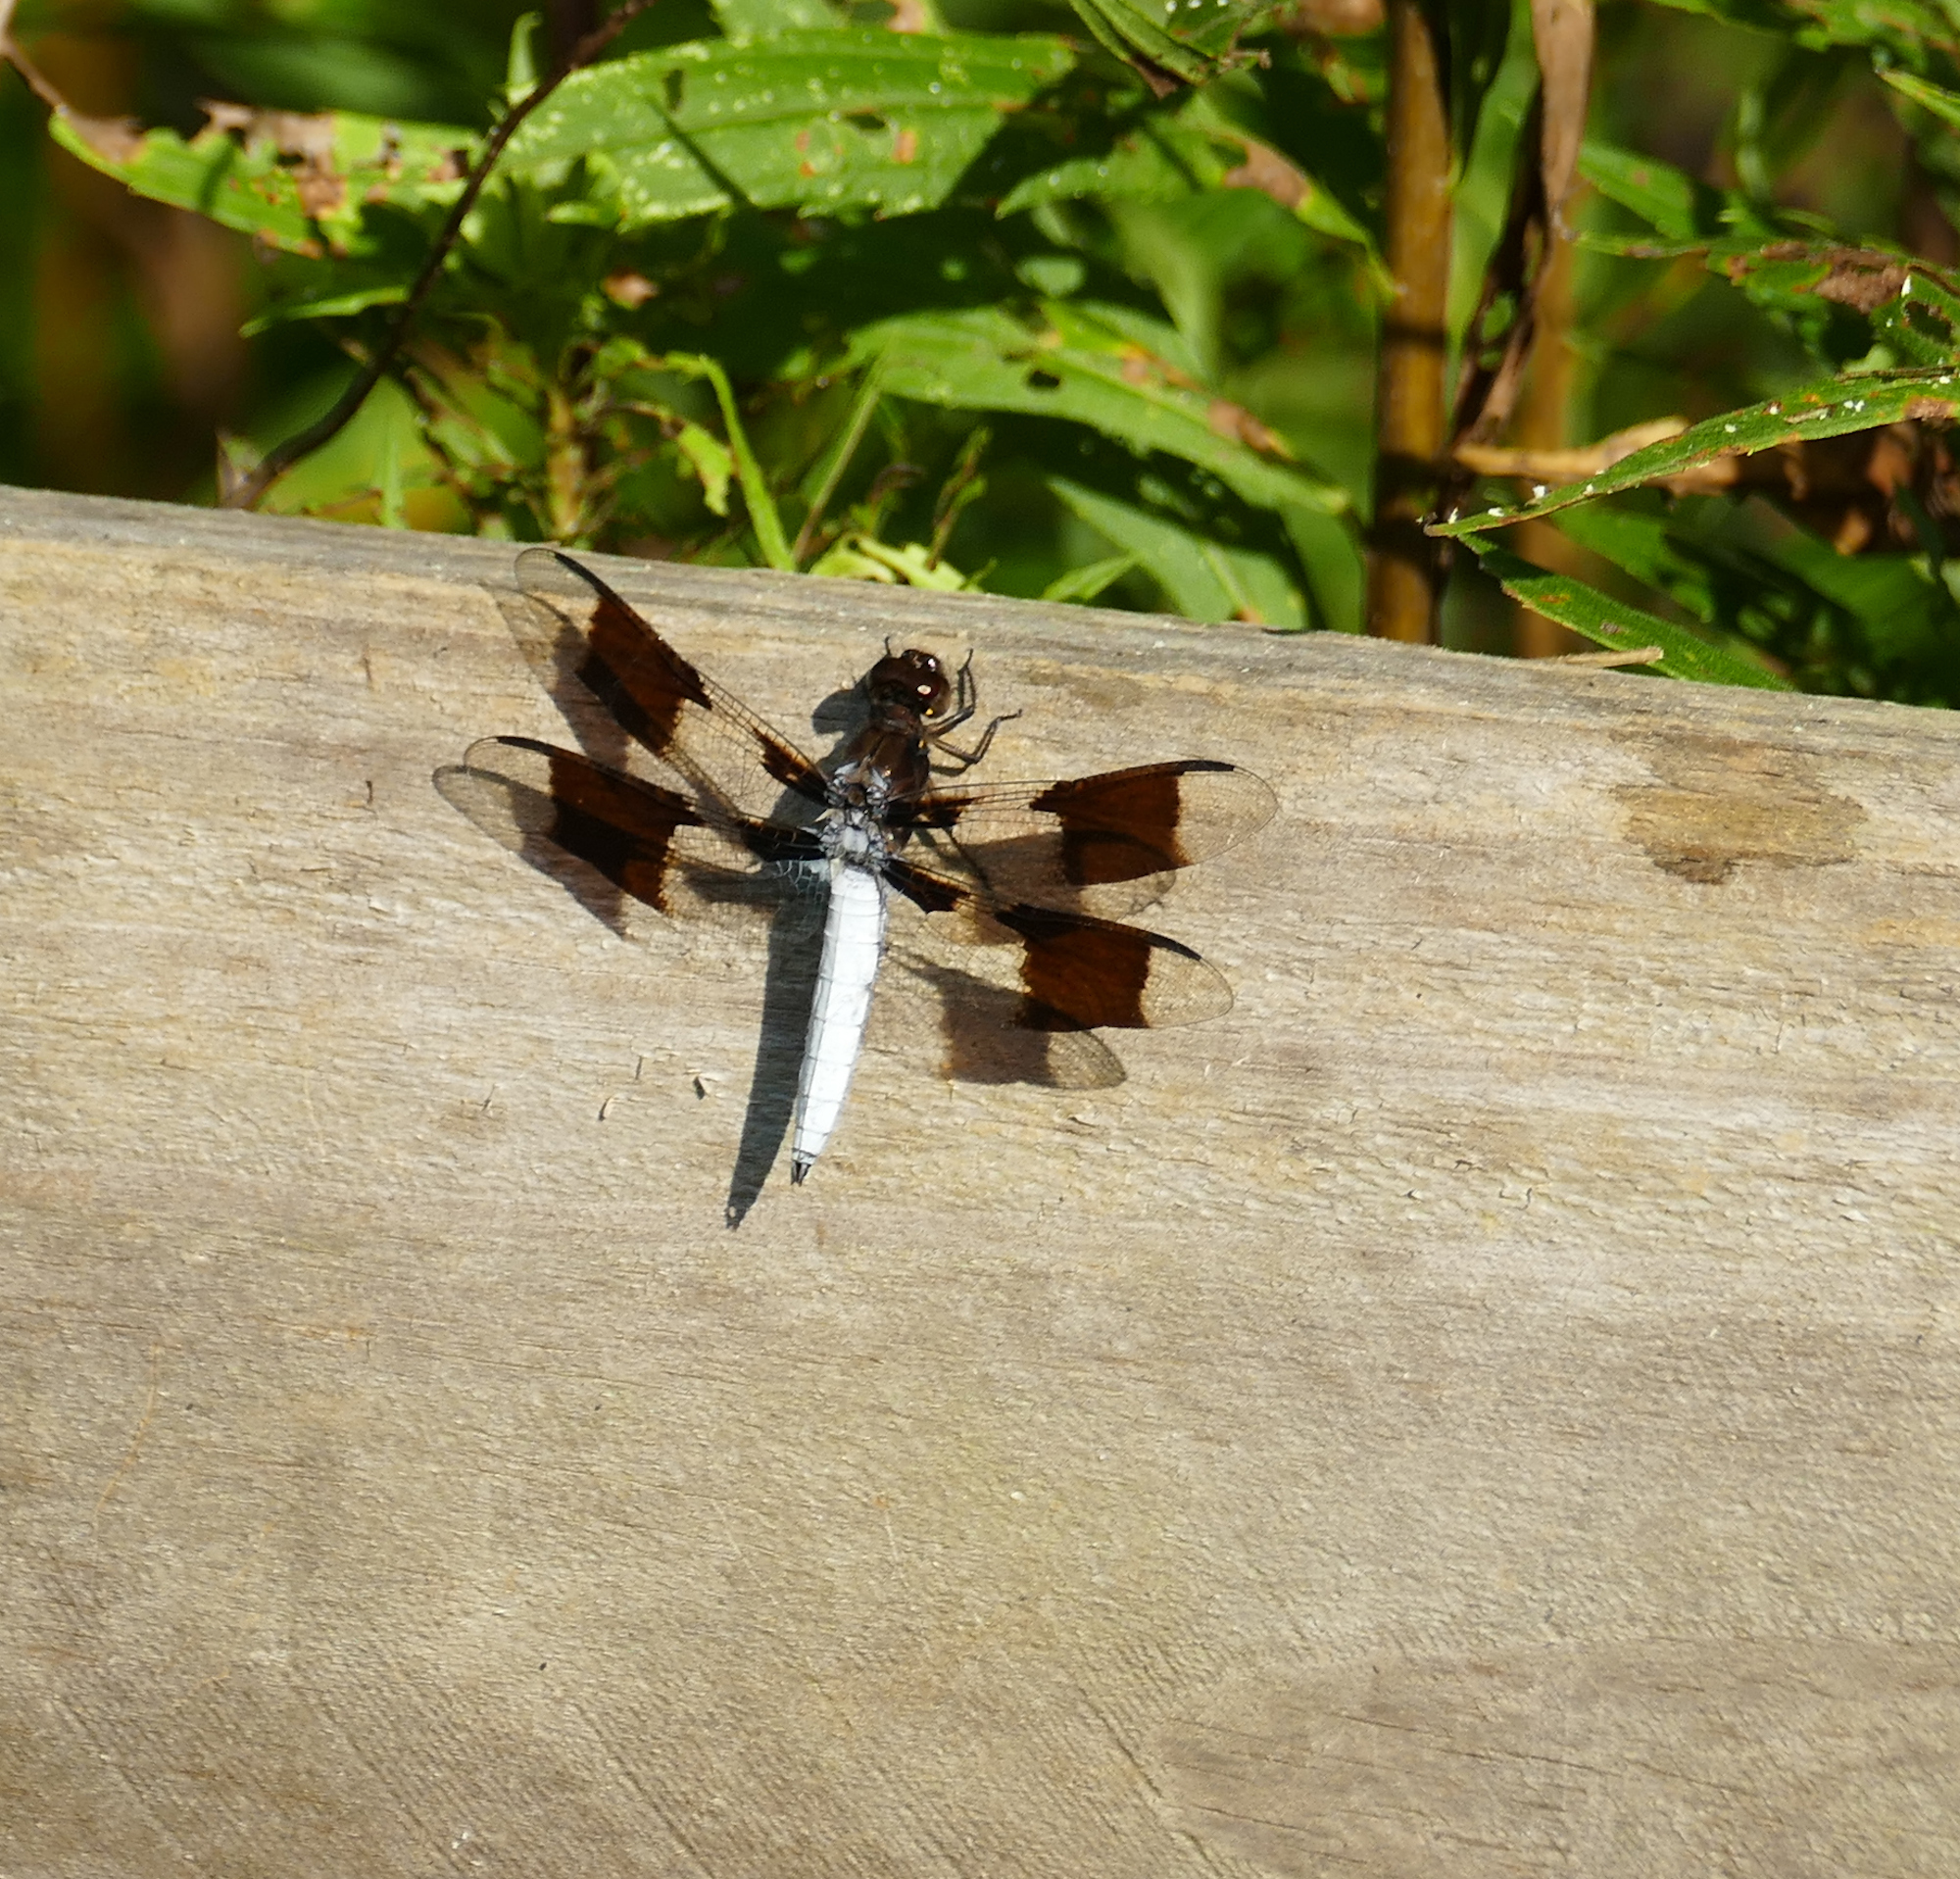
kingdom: Animalia
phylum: Arthropoda
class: Insecta
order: Odonata
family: Libellulidae
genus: Plathemis
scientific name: Plathemis lydia
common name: Common whitetail
